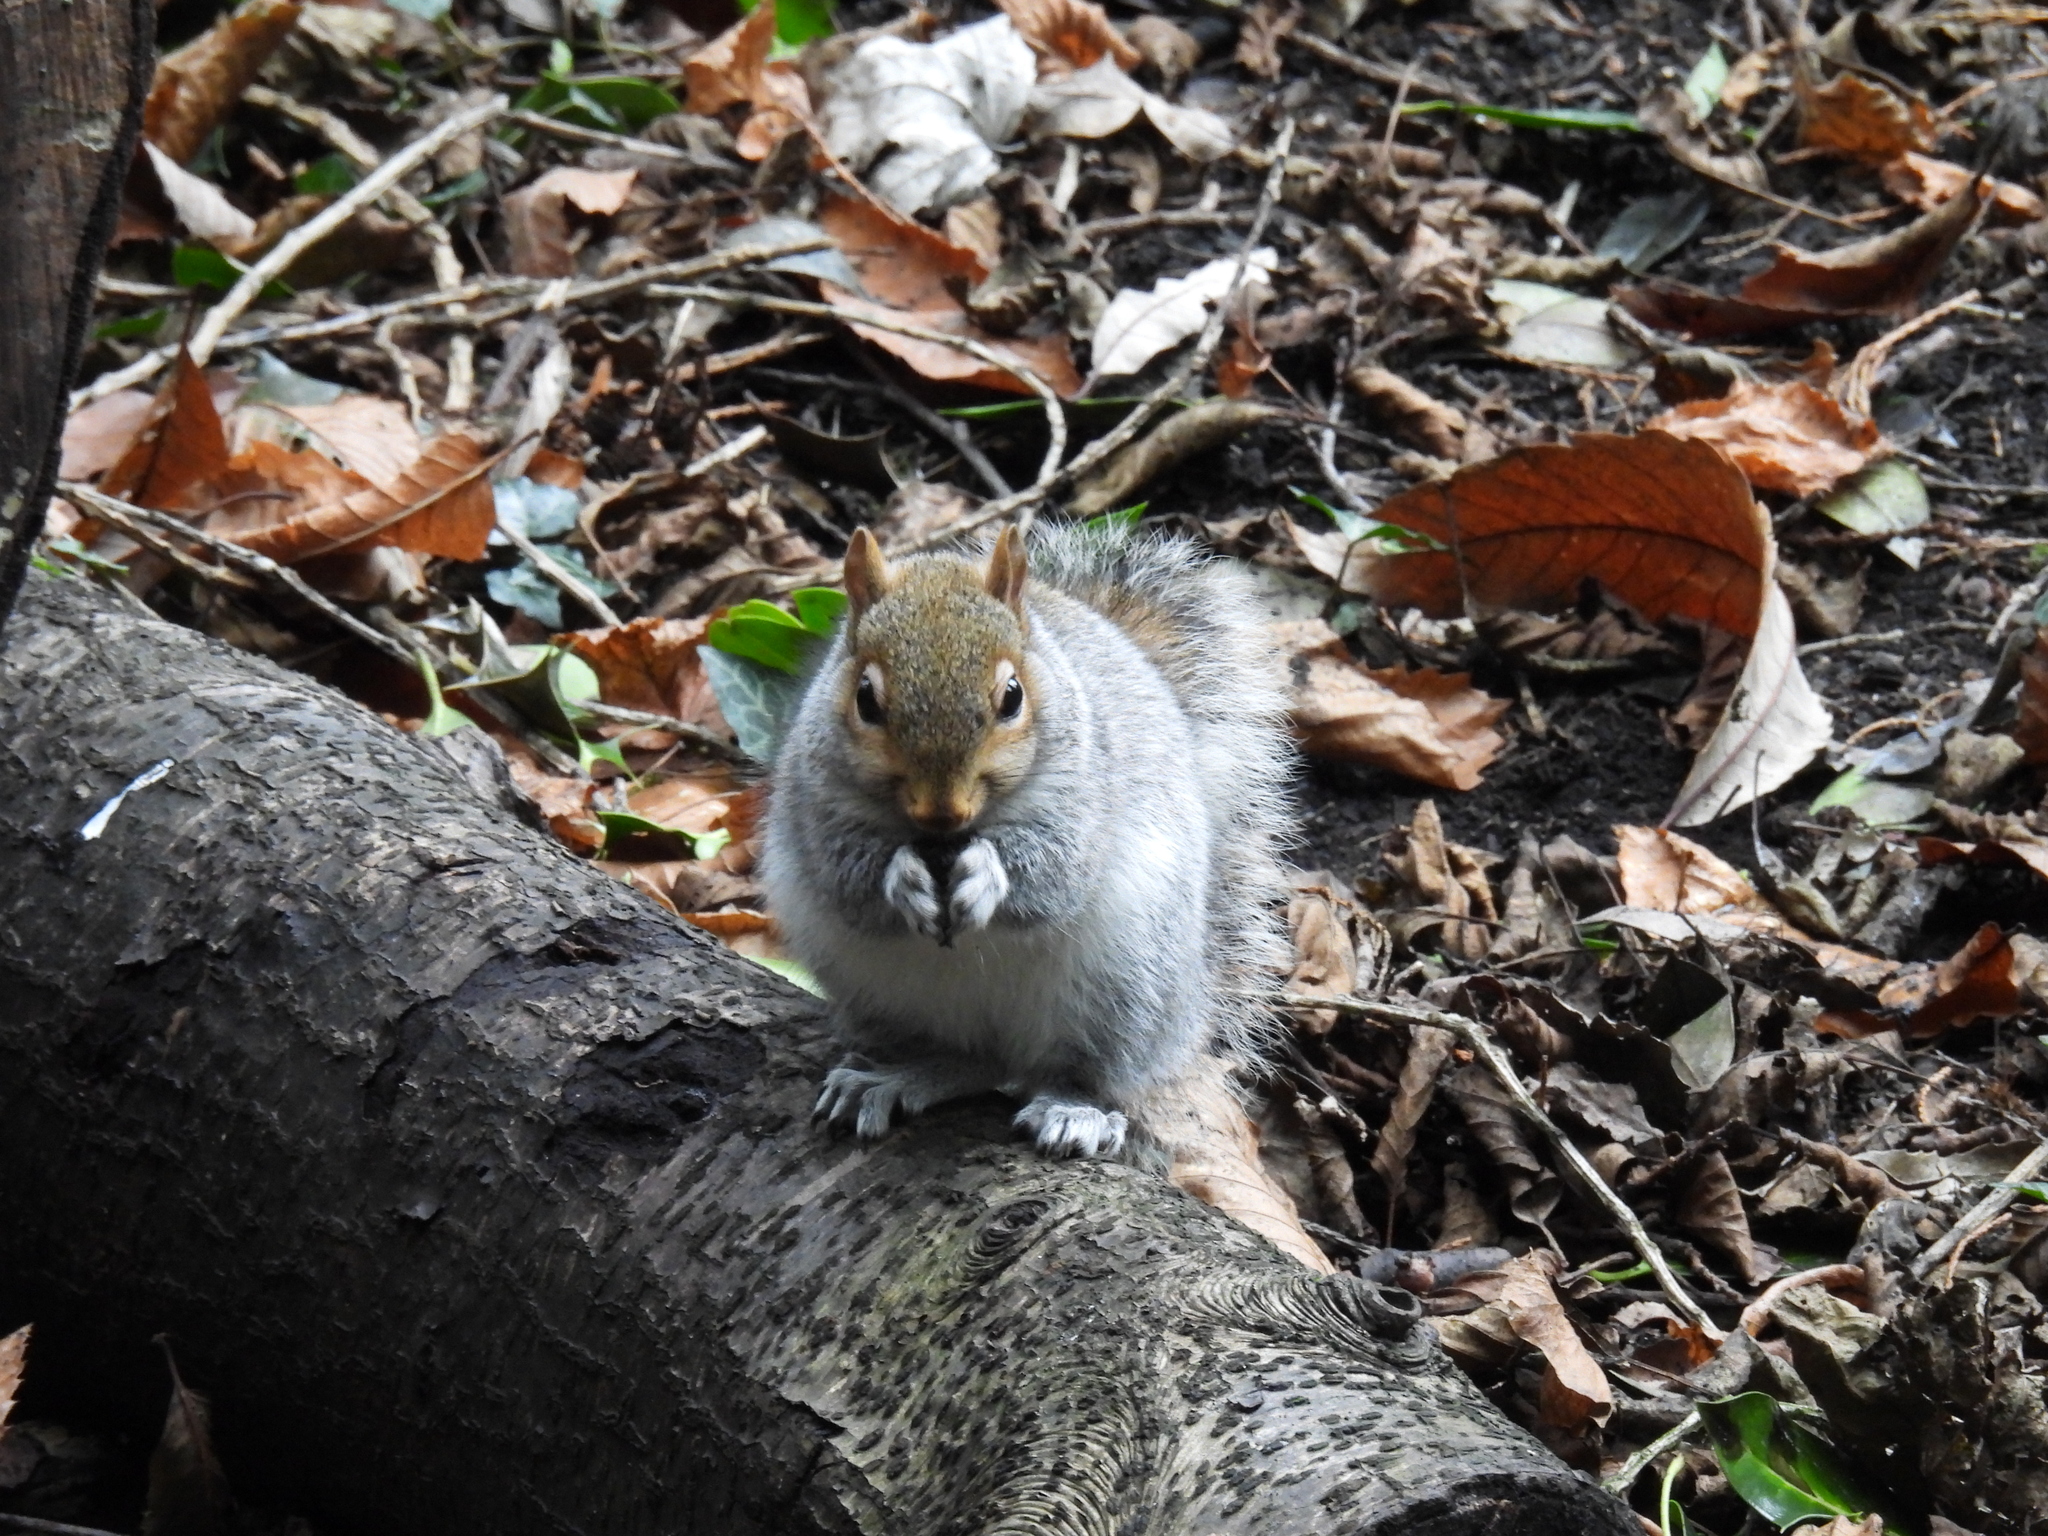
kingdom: Animalia
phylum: Chordata
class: Mammalia
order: Rodentia
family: Sciuridae
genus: Sciurus
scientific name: Sciurus carolinensis
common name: Eastern gray squirrel
